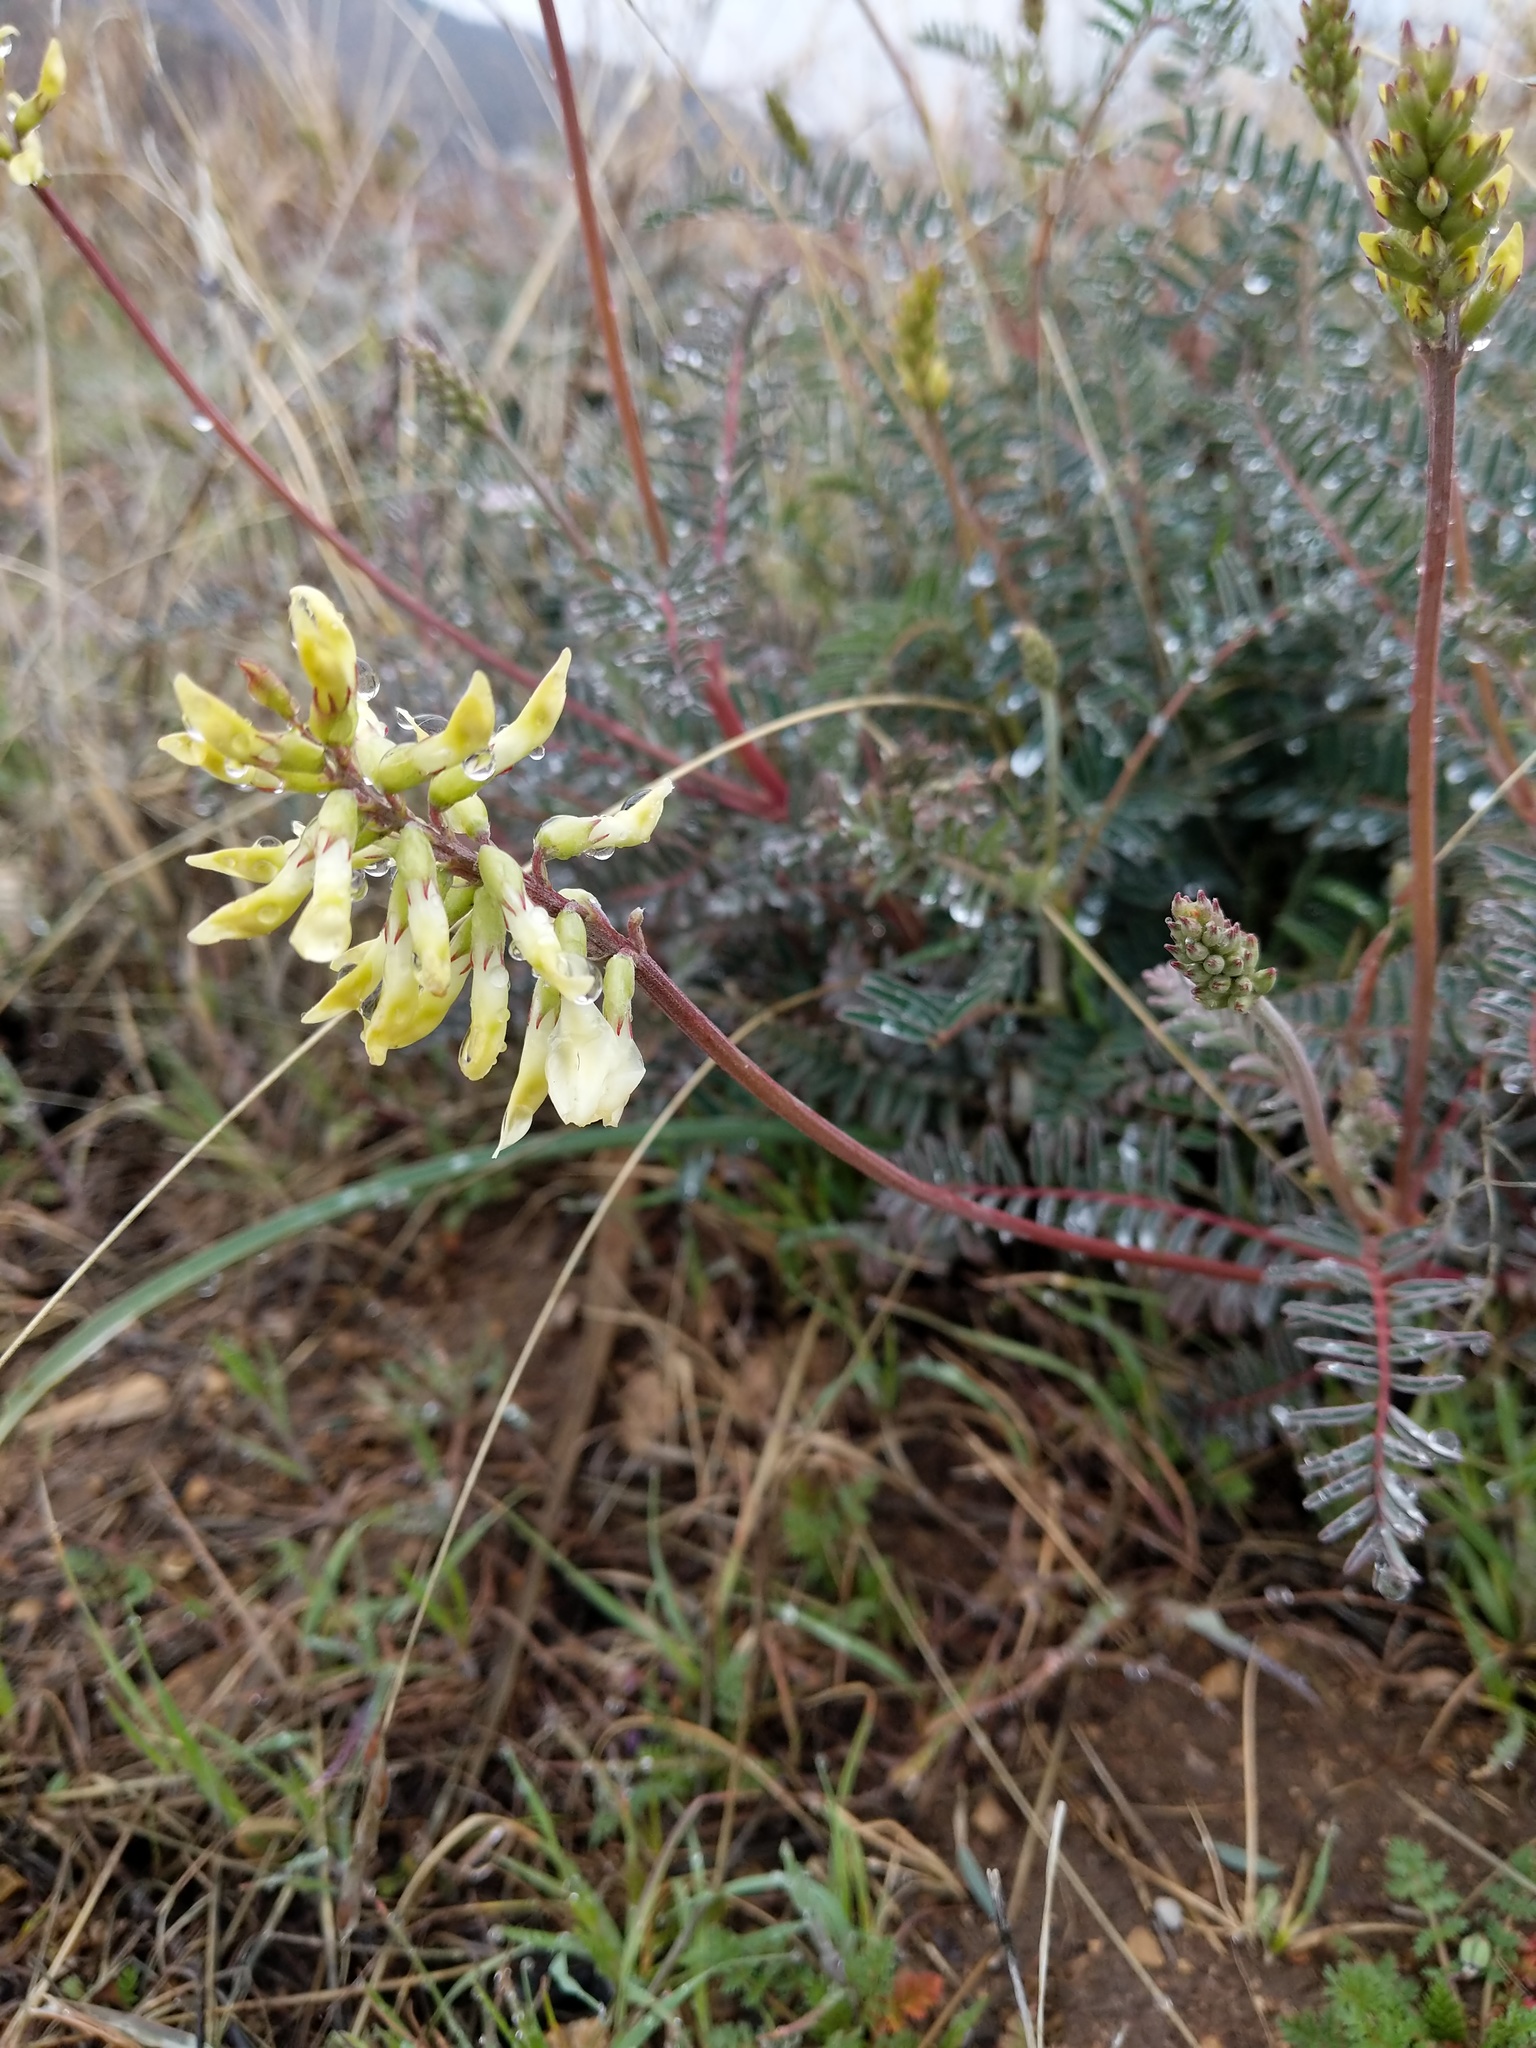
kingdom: Plantae
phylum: Tracheophyta
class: Magnoliopsida
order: Fabales
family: Fabaceae
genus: Astragalus
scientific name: Astragalus trichopodus
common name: Santa barbara milk-vetch
